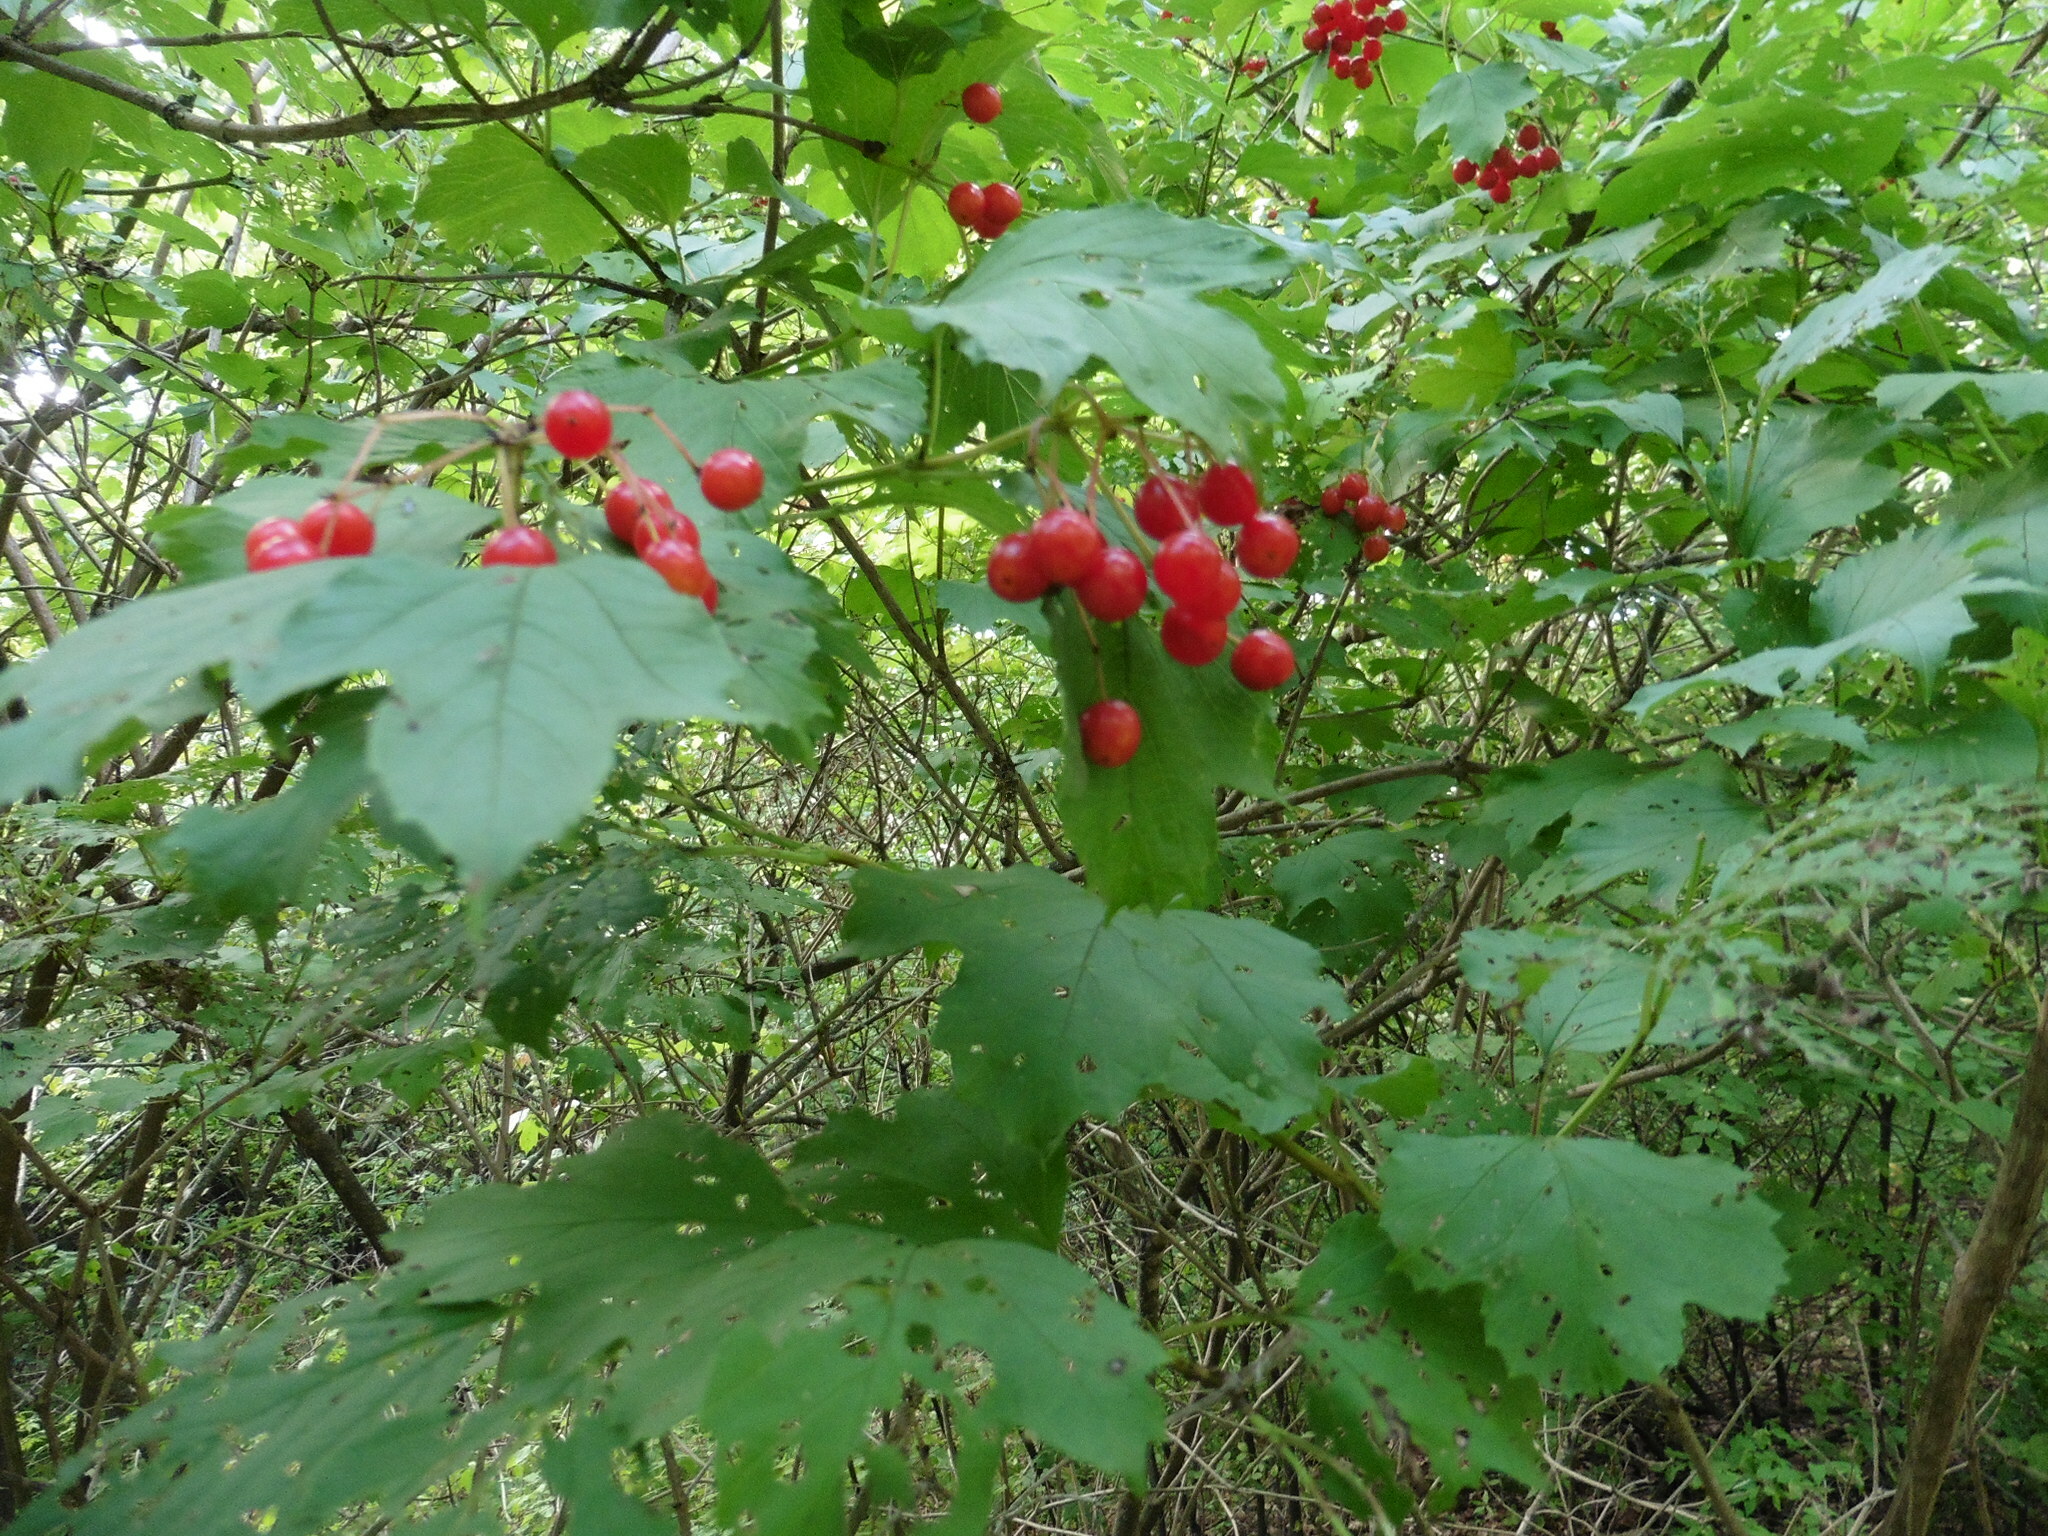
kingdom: Plantae
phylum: Tracheophyta
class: Magnoliopsida
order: Dipsacales
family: Viburnaceae
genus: Viburnum
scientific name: Viburnum opulus
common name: Guelder-rose
